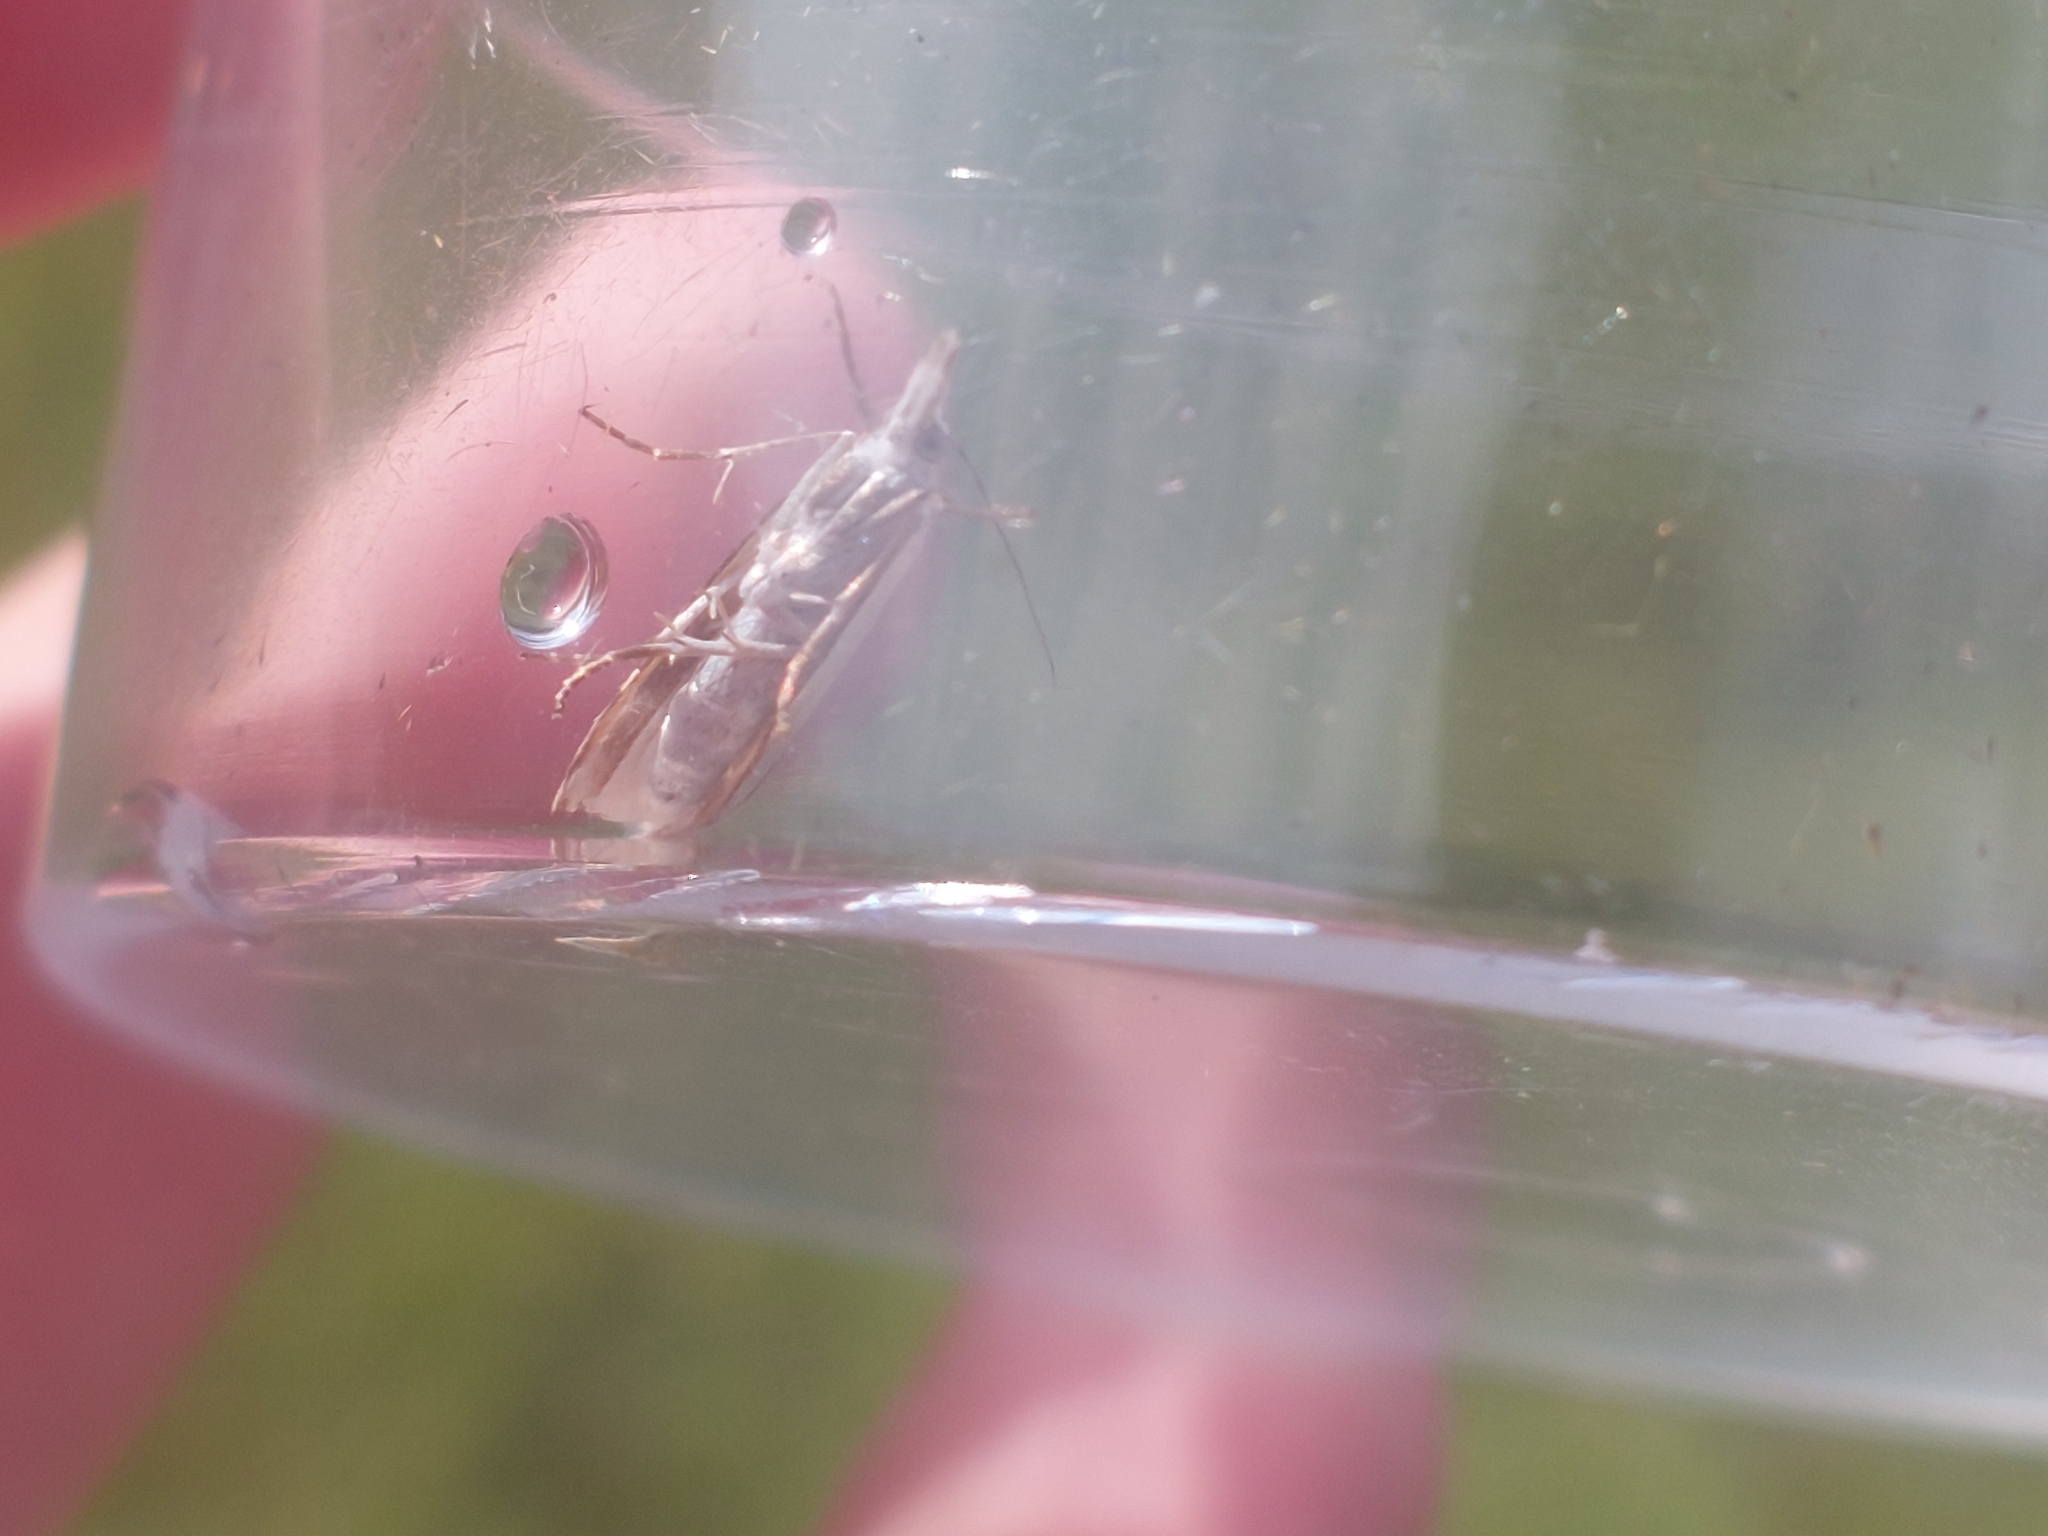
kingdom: Animalia
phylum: Arthropoda
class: Insecta
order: Lepidoptera
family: Crambidae
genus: Crambus
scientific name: Crambus pascuella
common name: Inlaid grass-veneer
